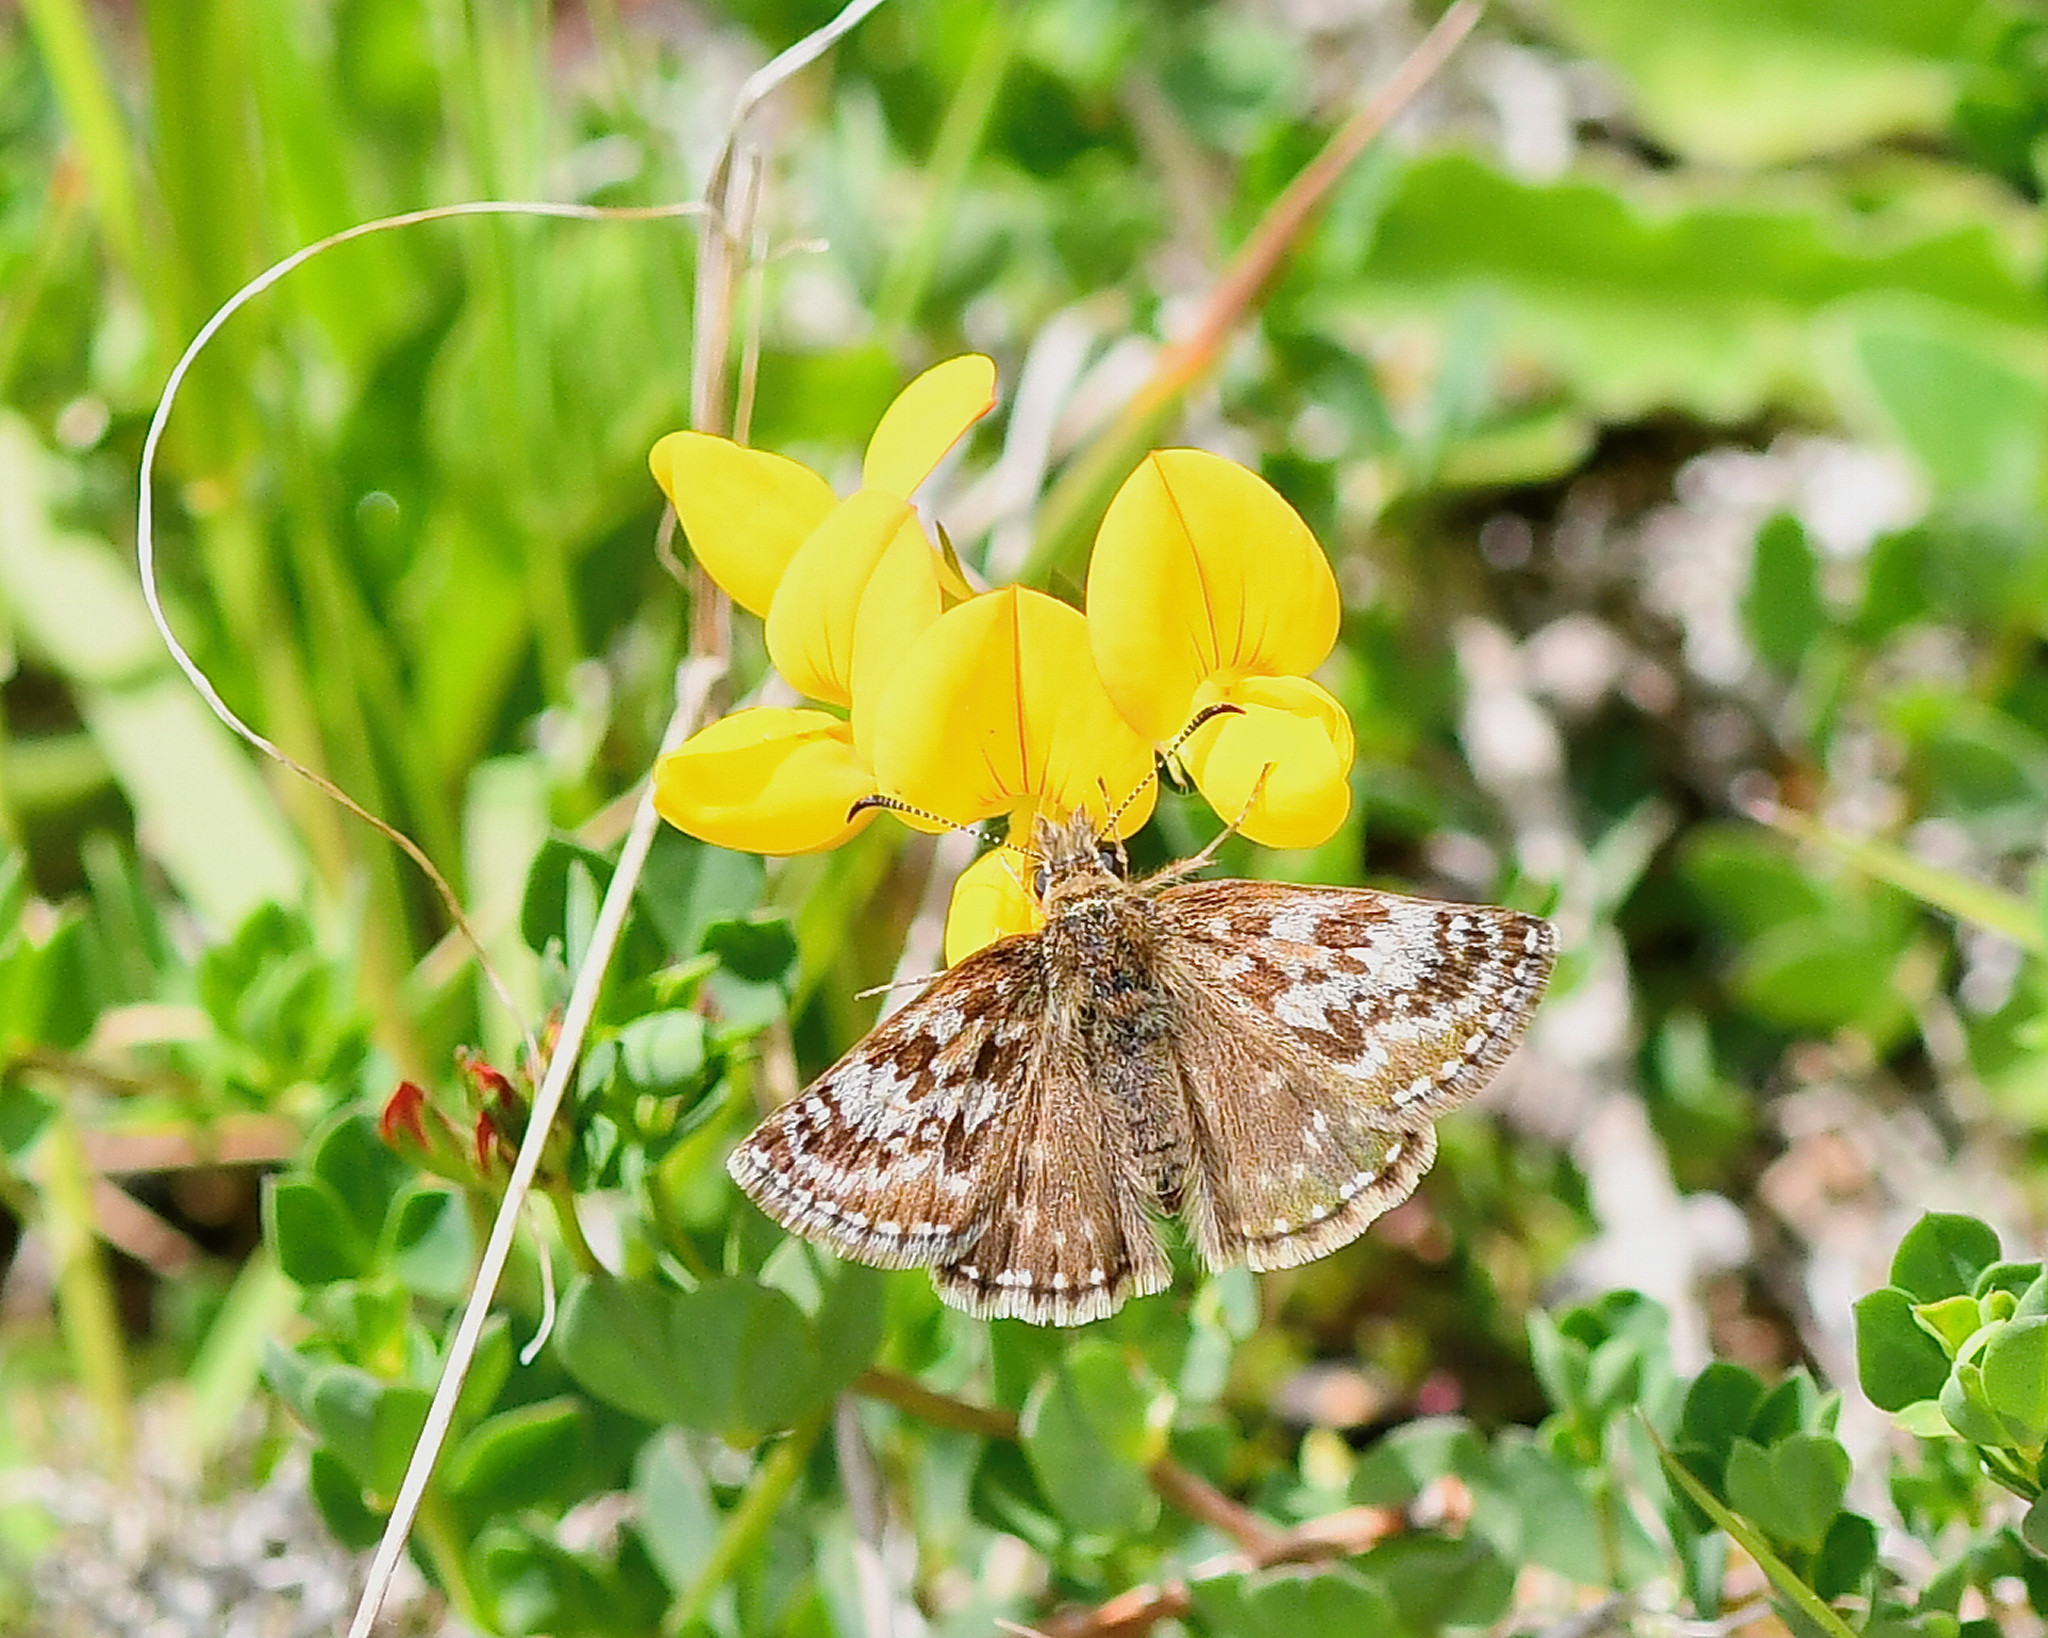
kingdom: Animalia
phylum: Arthropoda
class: Insecta
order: Lepidoptera
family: Hesperiidae
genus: Erynnis
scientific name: Erynnis tages
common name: Dingy skipper
